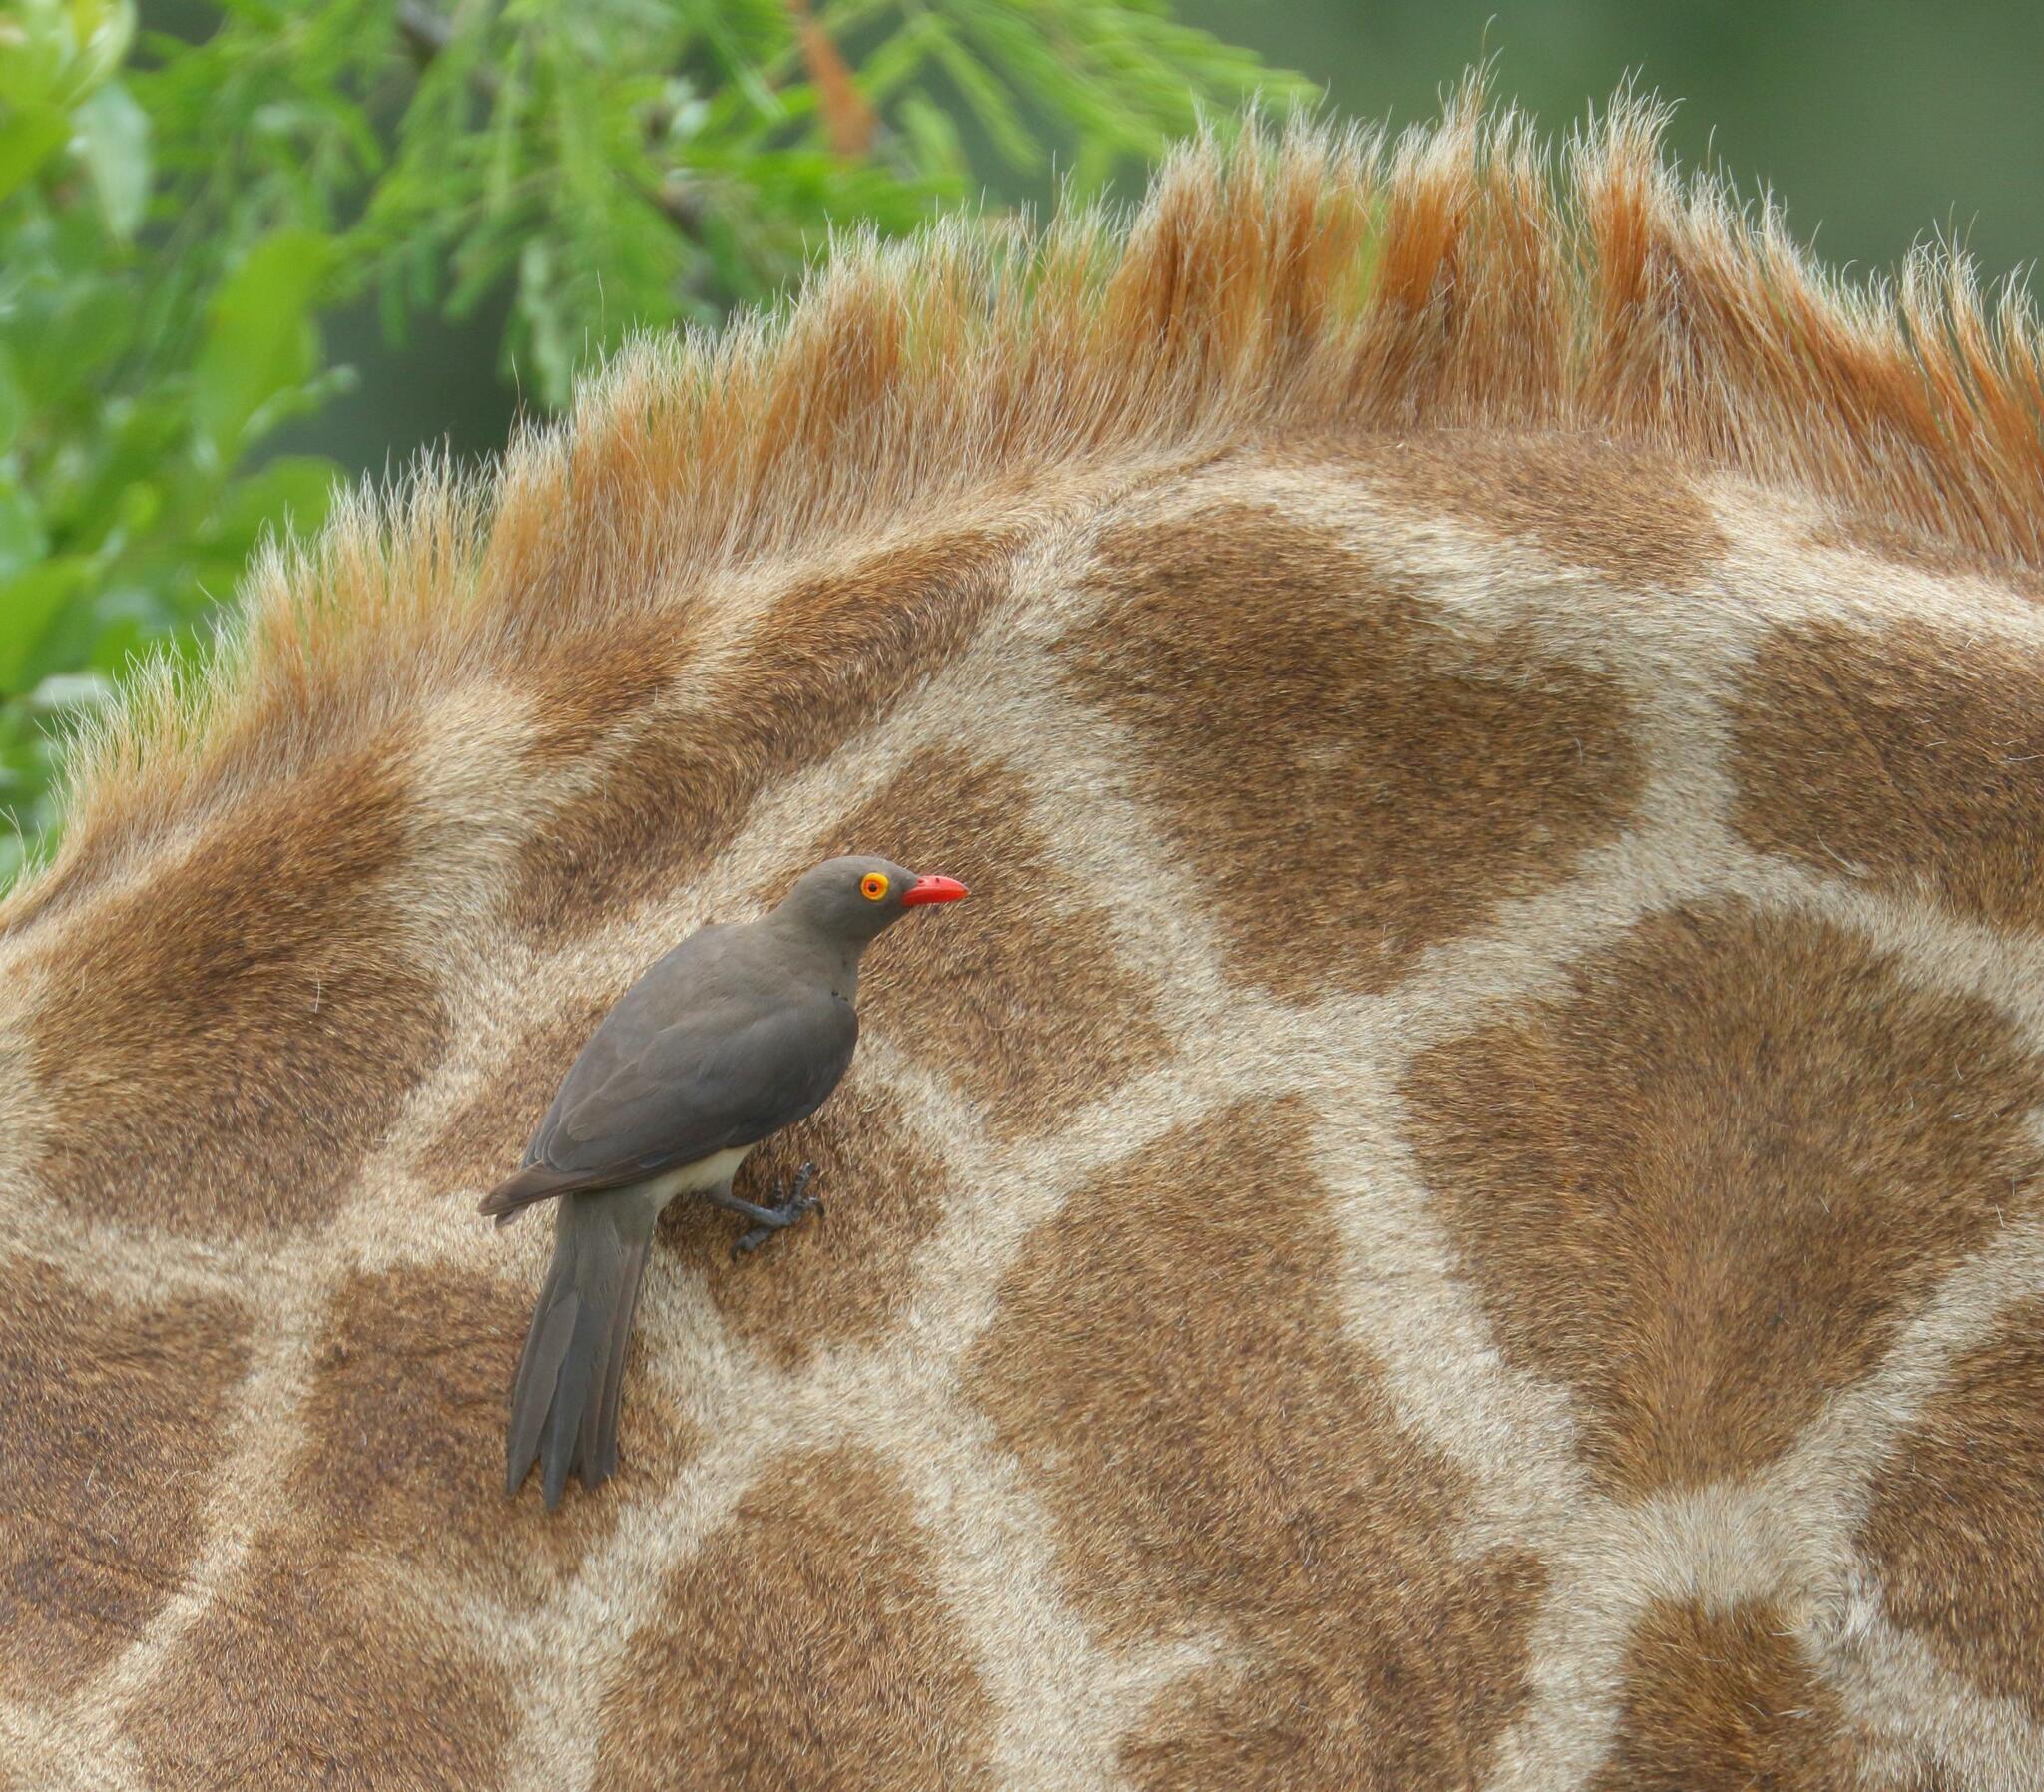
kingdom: Animalia
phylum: Chordata
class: Aves
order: Passeriformes
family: Buphagidae
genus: Buphagus
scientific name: Buphagus erythrorhynchus
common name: Red-billed oxpecker
